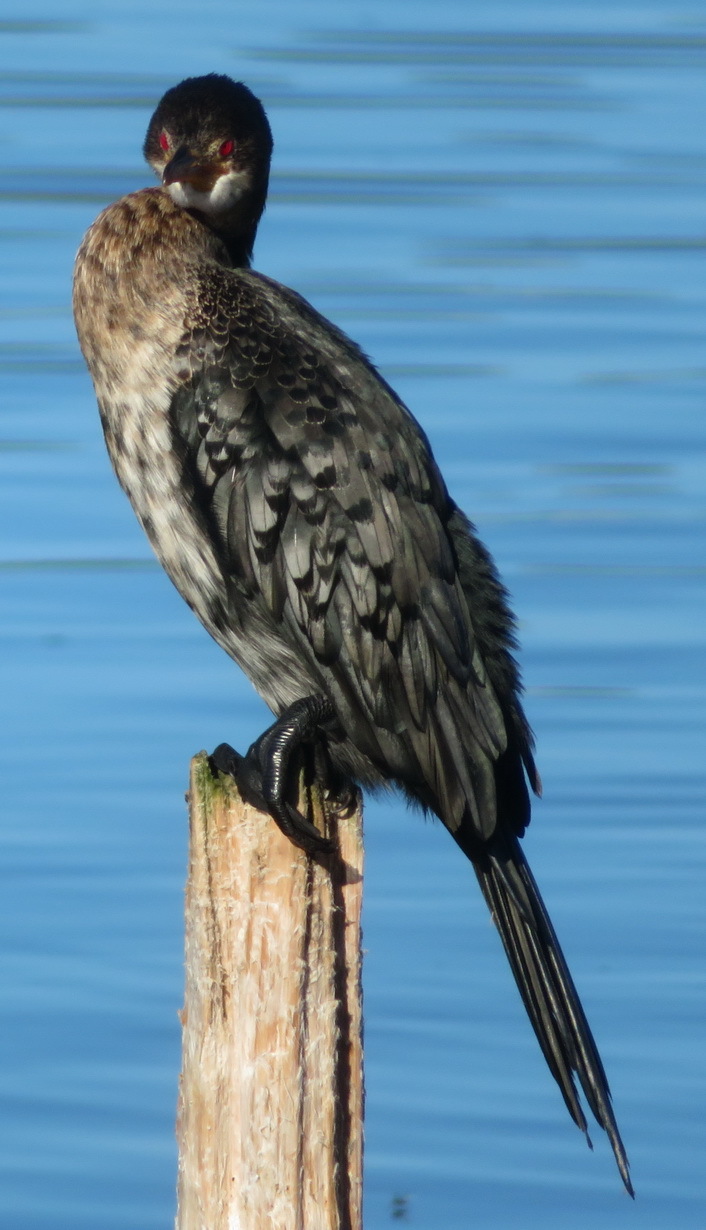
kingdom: Animalia
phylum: Chordata
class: Aves
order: Suliformes
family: Phalacrocoracidae
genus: Microcarbo
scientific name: Microcarbo africanus
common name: Long-tailed cormorant
